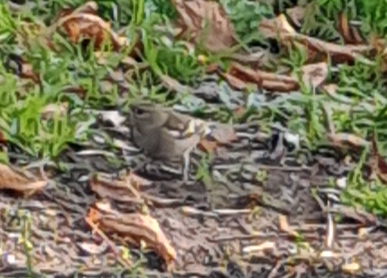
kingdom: Animalia
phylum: Chordata
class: Aves
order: Passeriformes
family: Fringillidae
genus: Fringilla
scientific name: Fringilla coelebs
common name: Common chaffinch
